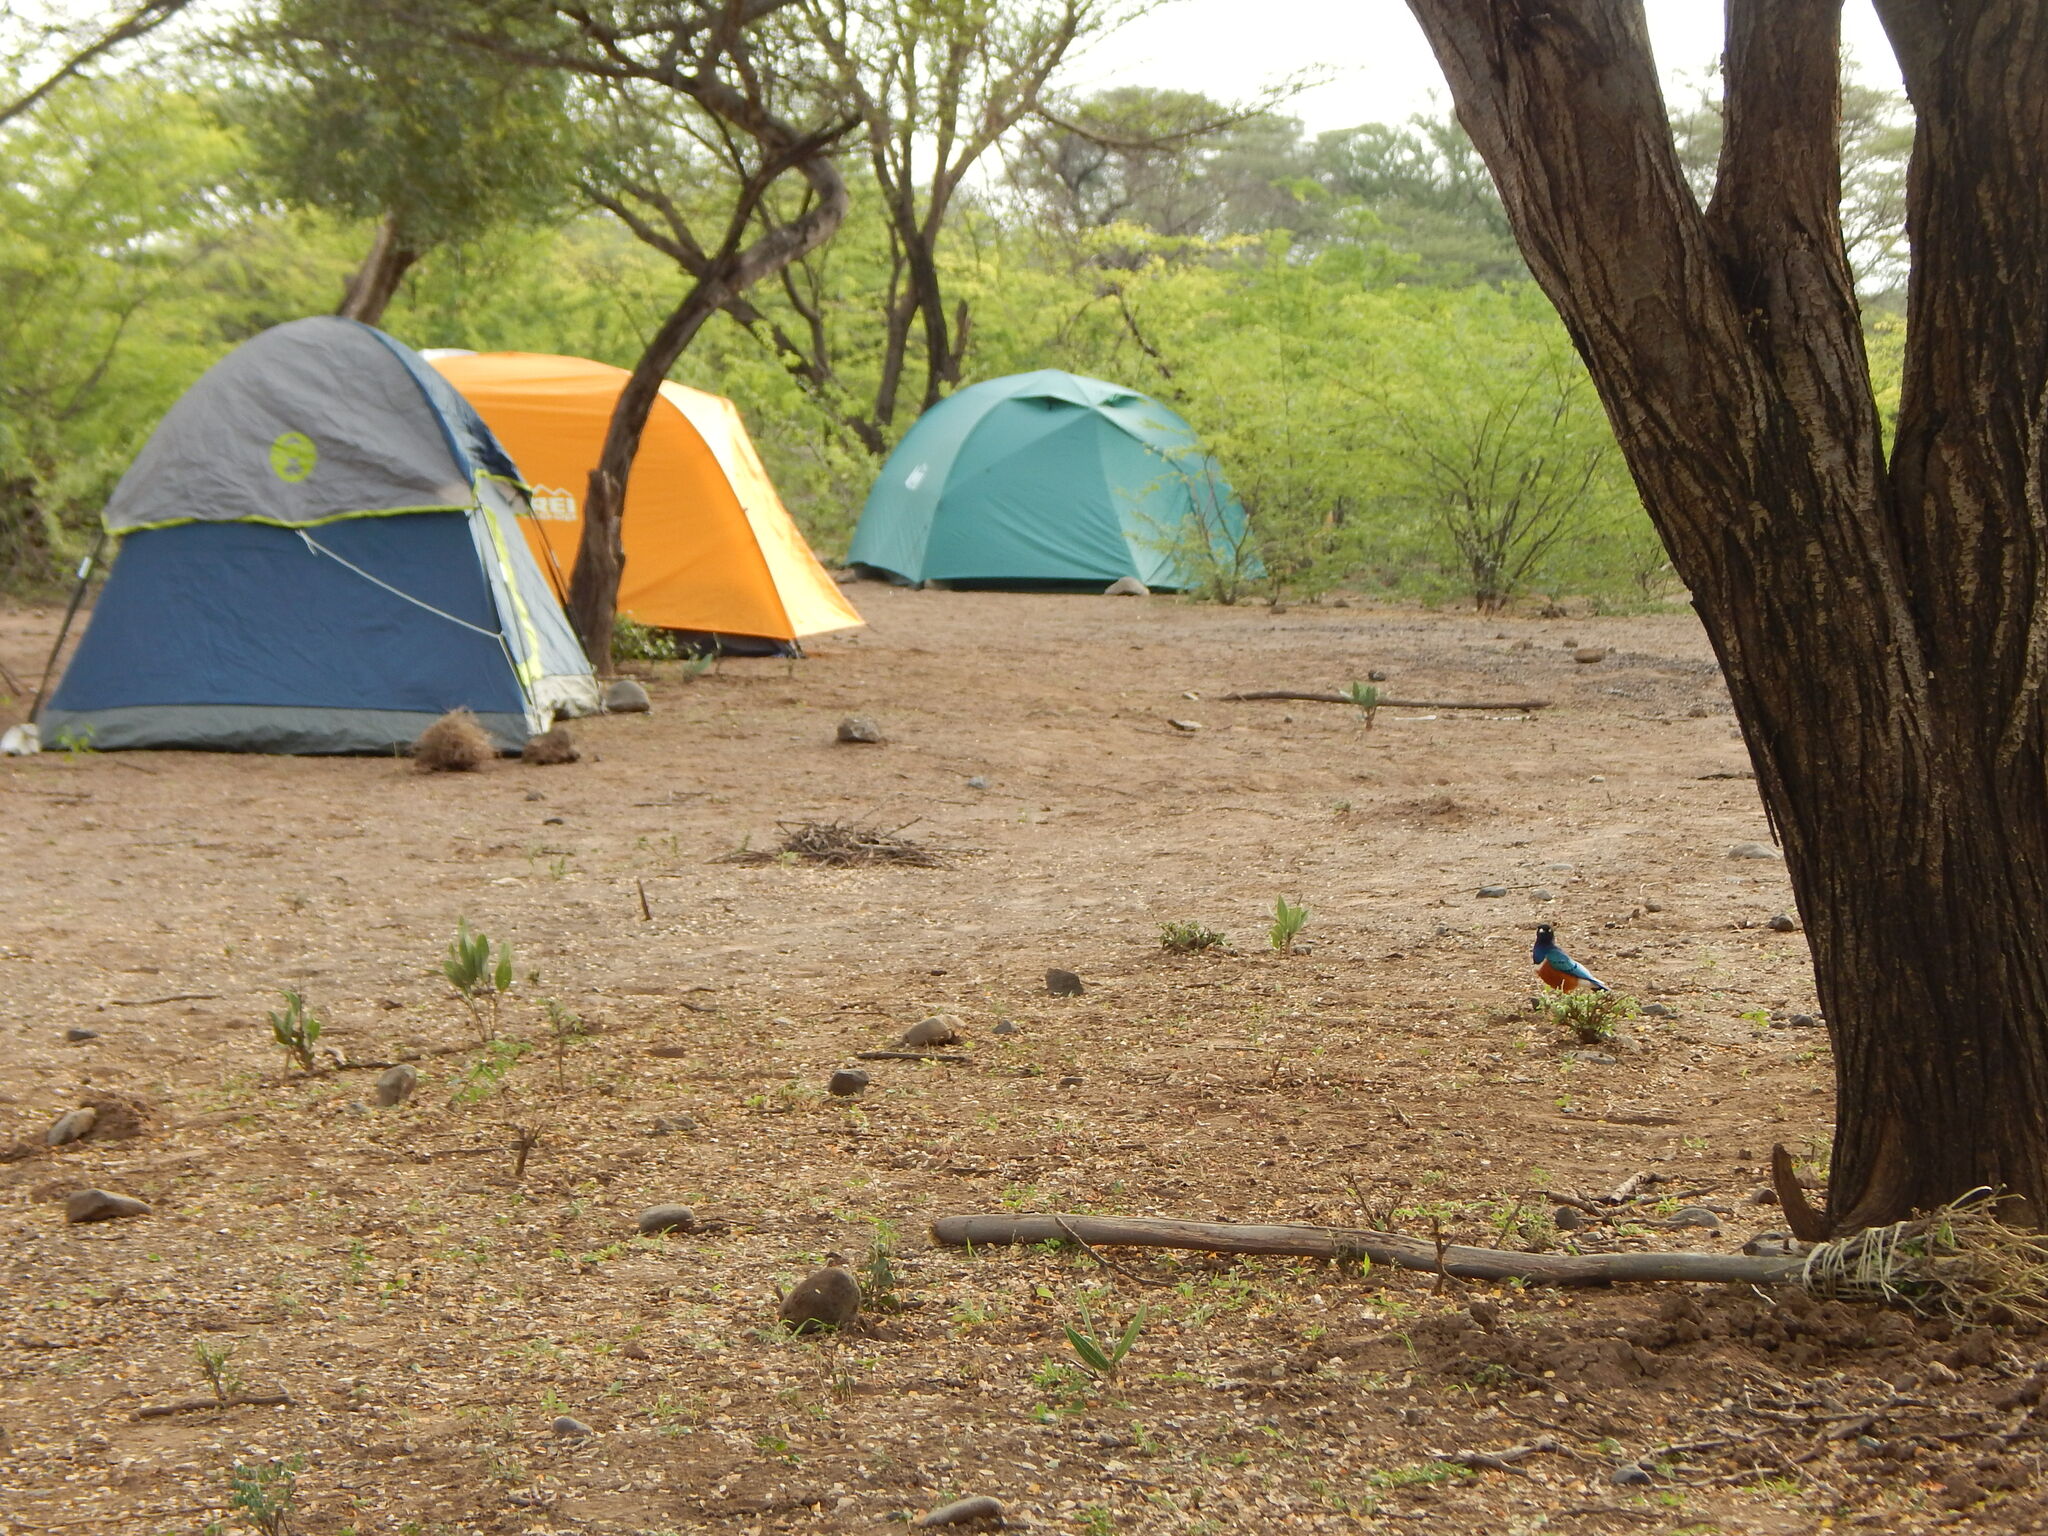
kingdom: Animalia
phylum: Chordata
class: Aves
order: Passeriformes
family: Sturnidae
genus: Lamprotornis
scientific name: Lamprotornis superbus
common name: Superb starling
